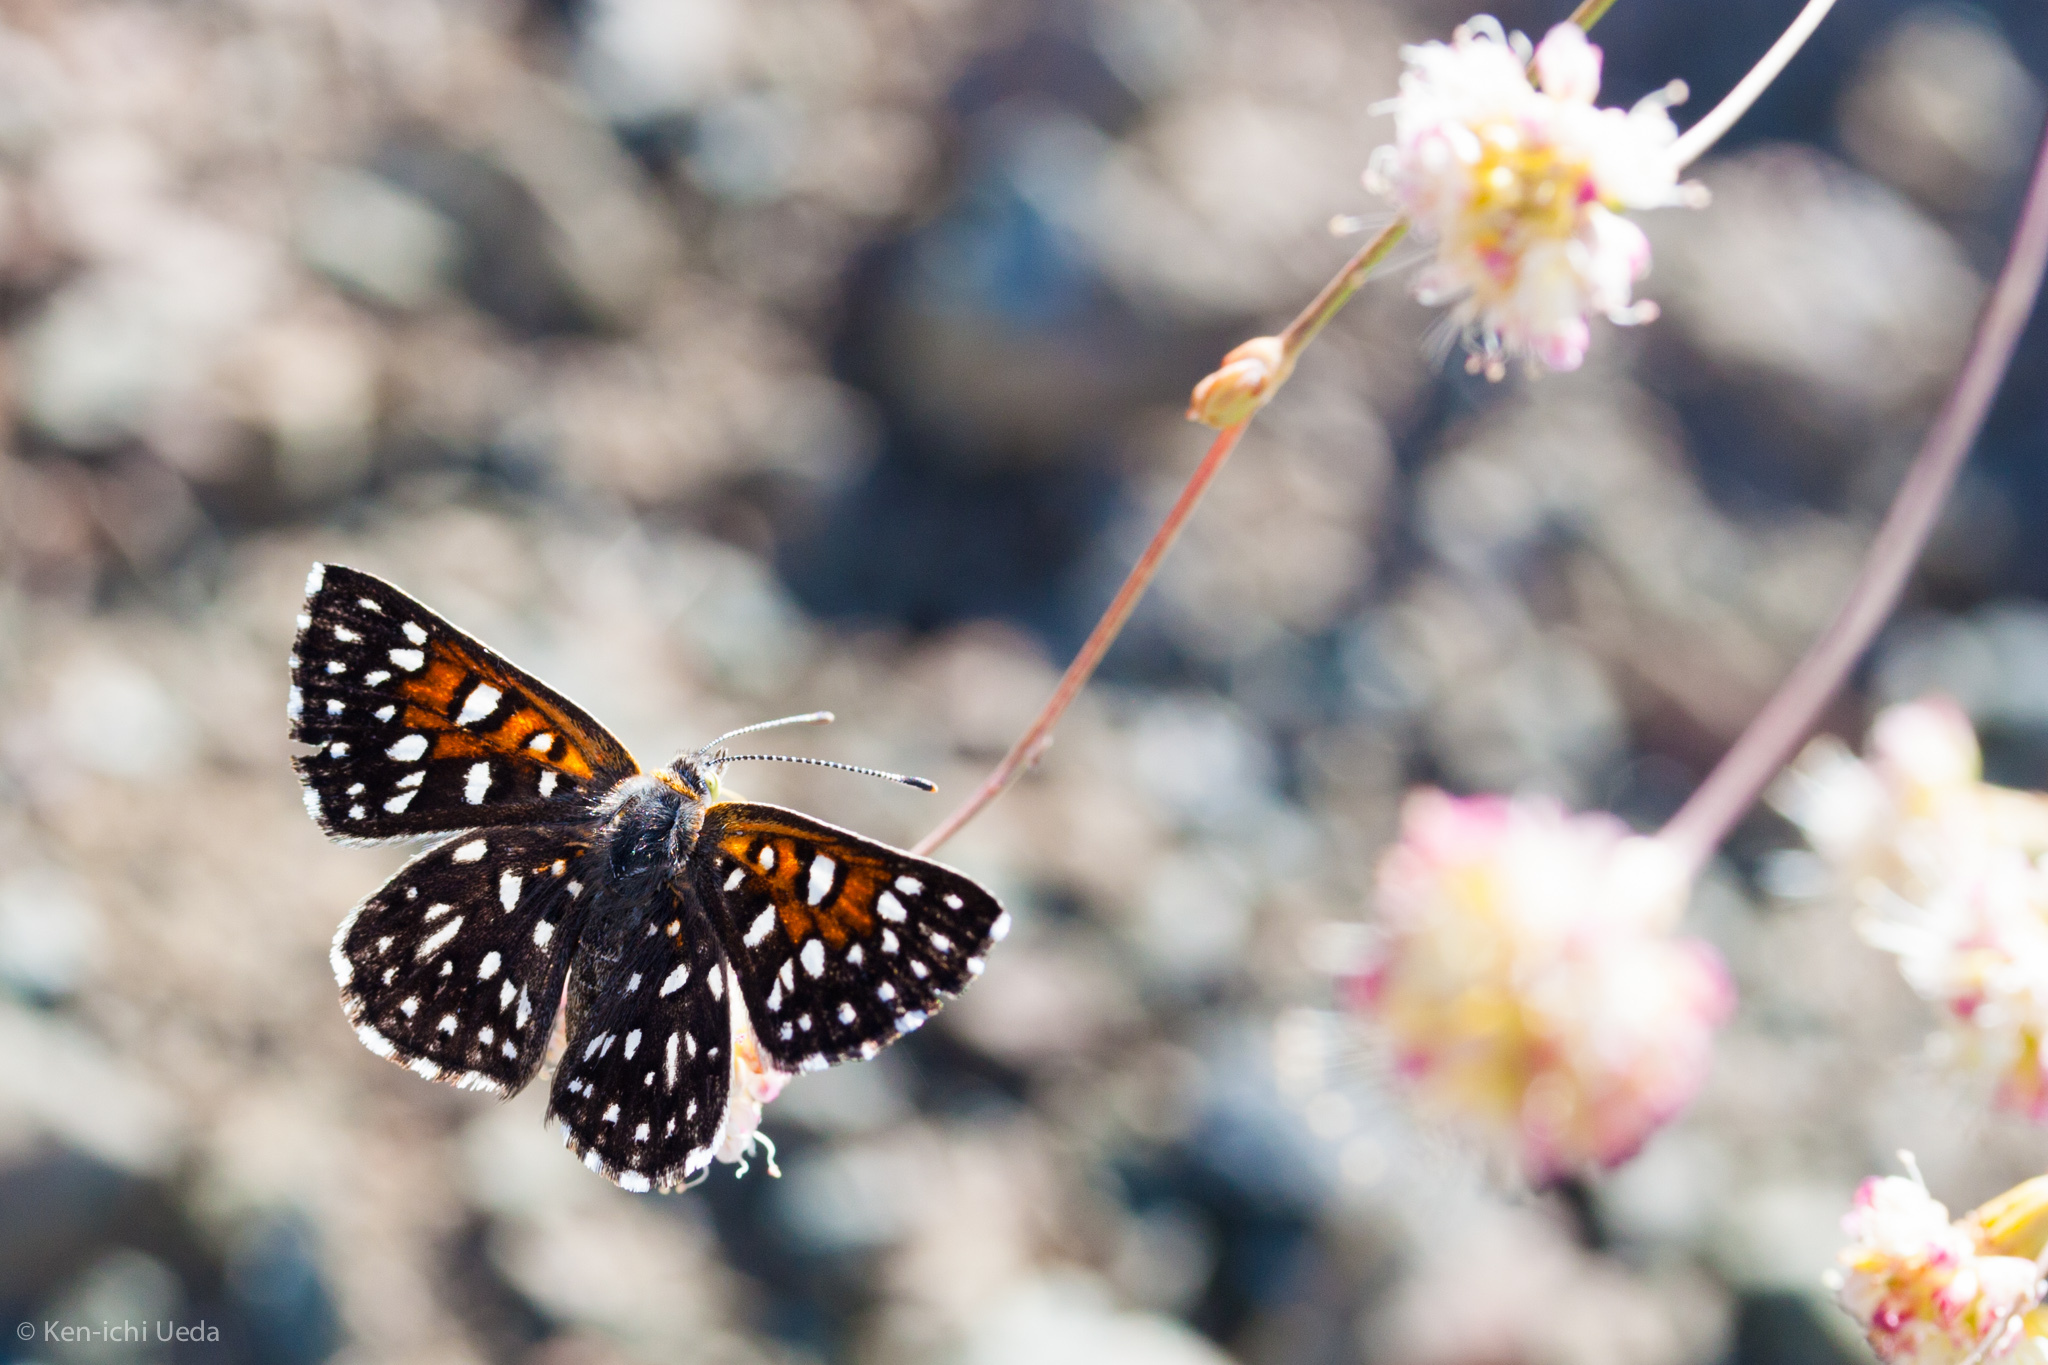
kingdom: Animalia
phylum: Arthropoda
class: Insecta
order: Lepidoptera
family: Riodinidae
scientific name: Riodinidae
